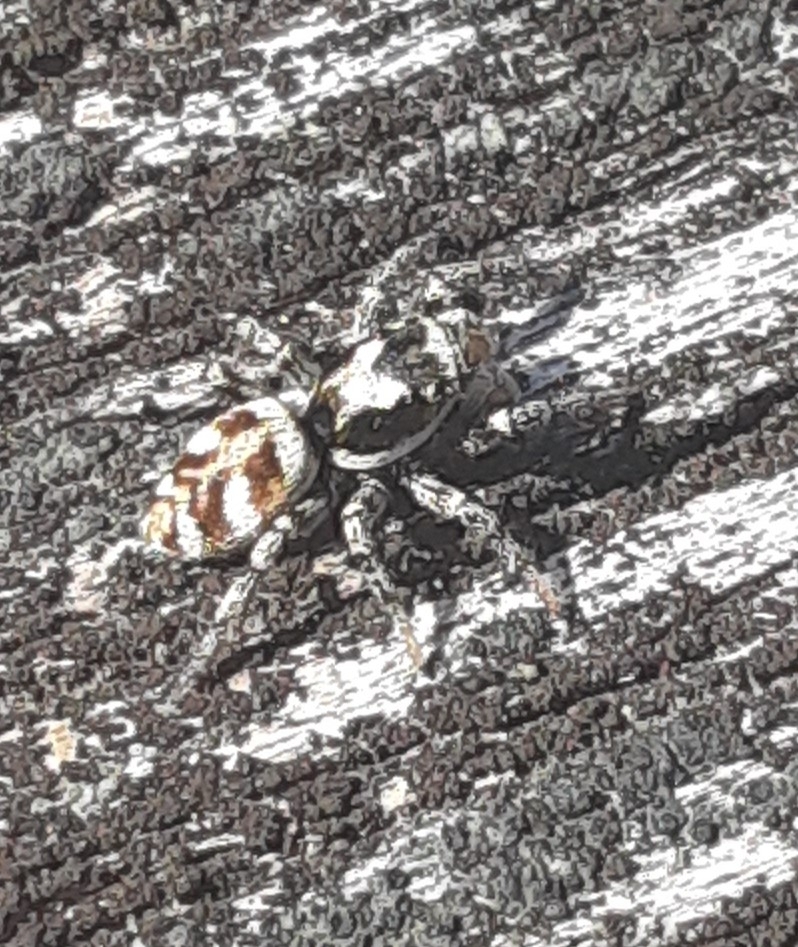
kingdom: Animalia
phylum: Arthropoda
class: Arachnida
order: Araneae
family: Salticidae
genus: Salticus
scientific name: Salticus scenicus
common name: Zebra jumper
